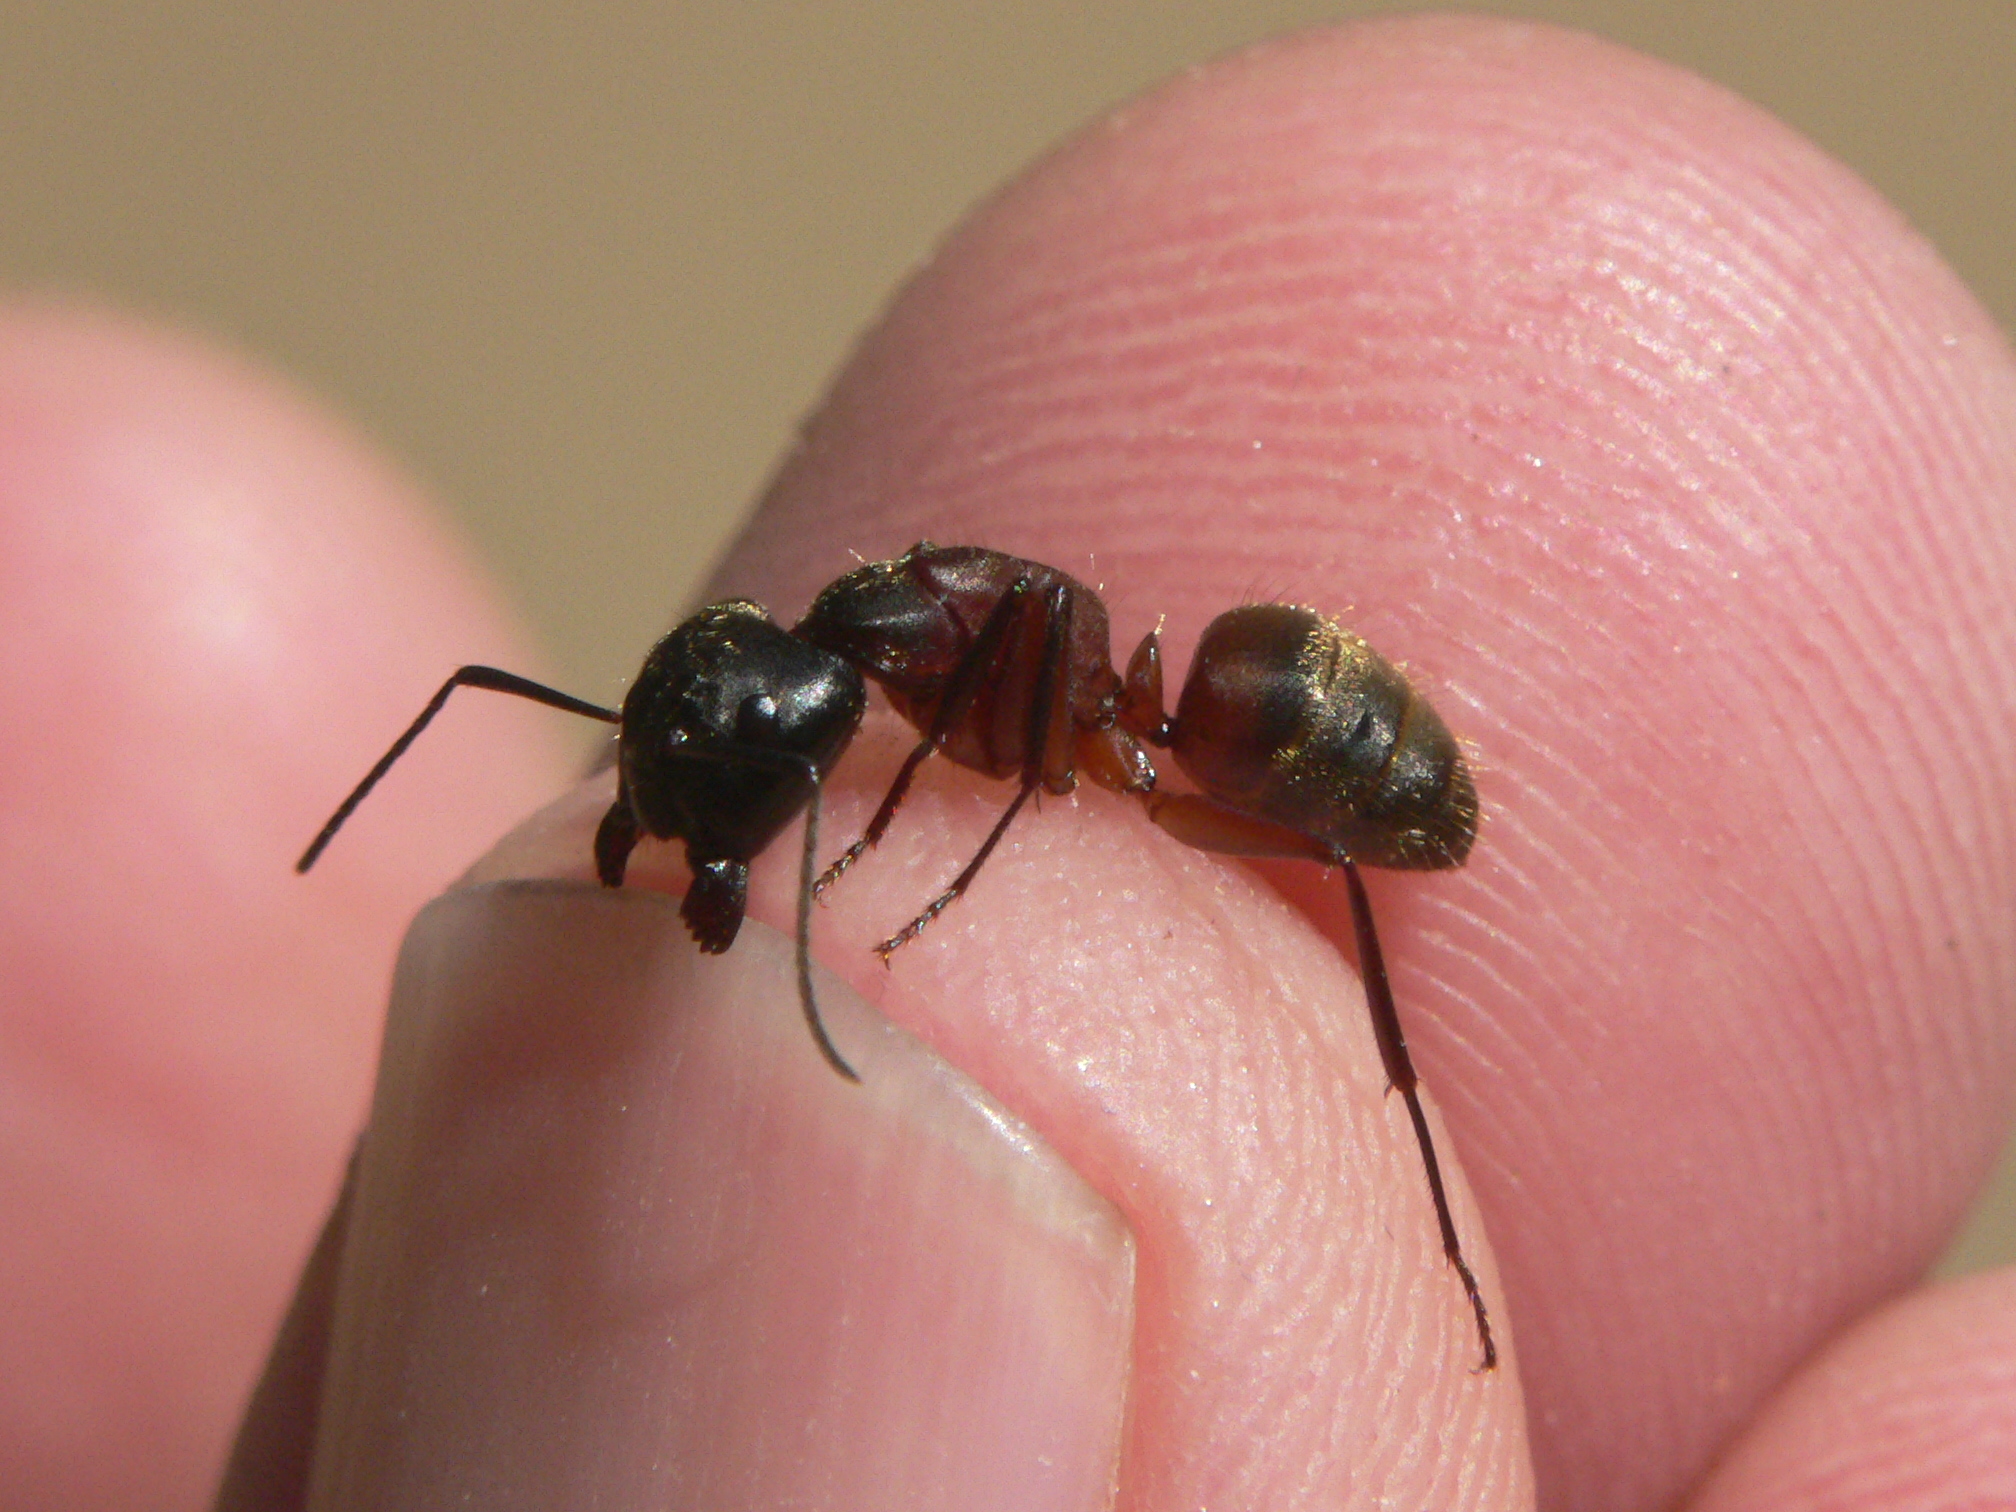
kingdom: Animalia
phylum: Arthropoda
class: Insecta
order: Hymenoptera
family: Formicidae
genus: Camponotus
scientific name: Camponotus chromaiodes
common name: Red carpenter ant
